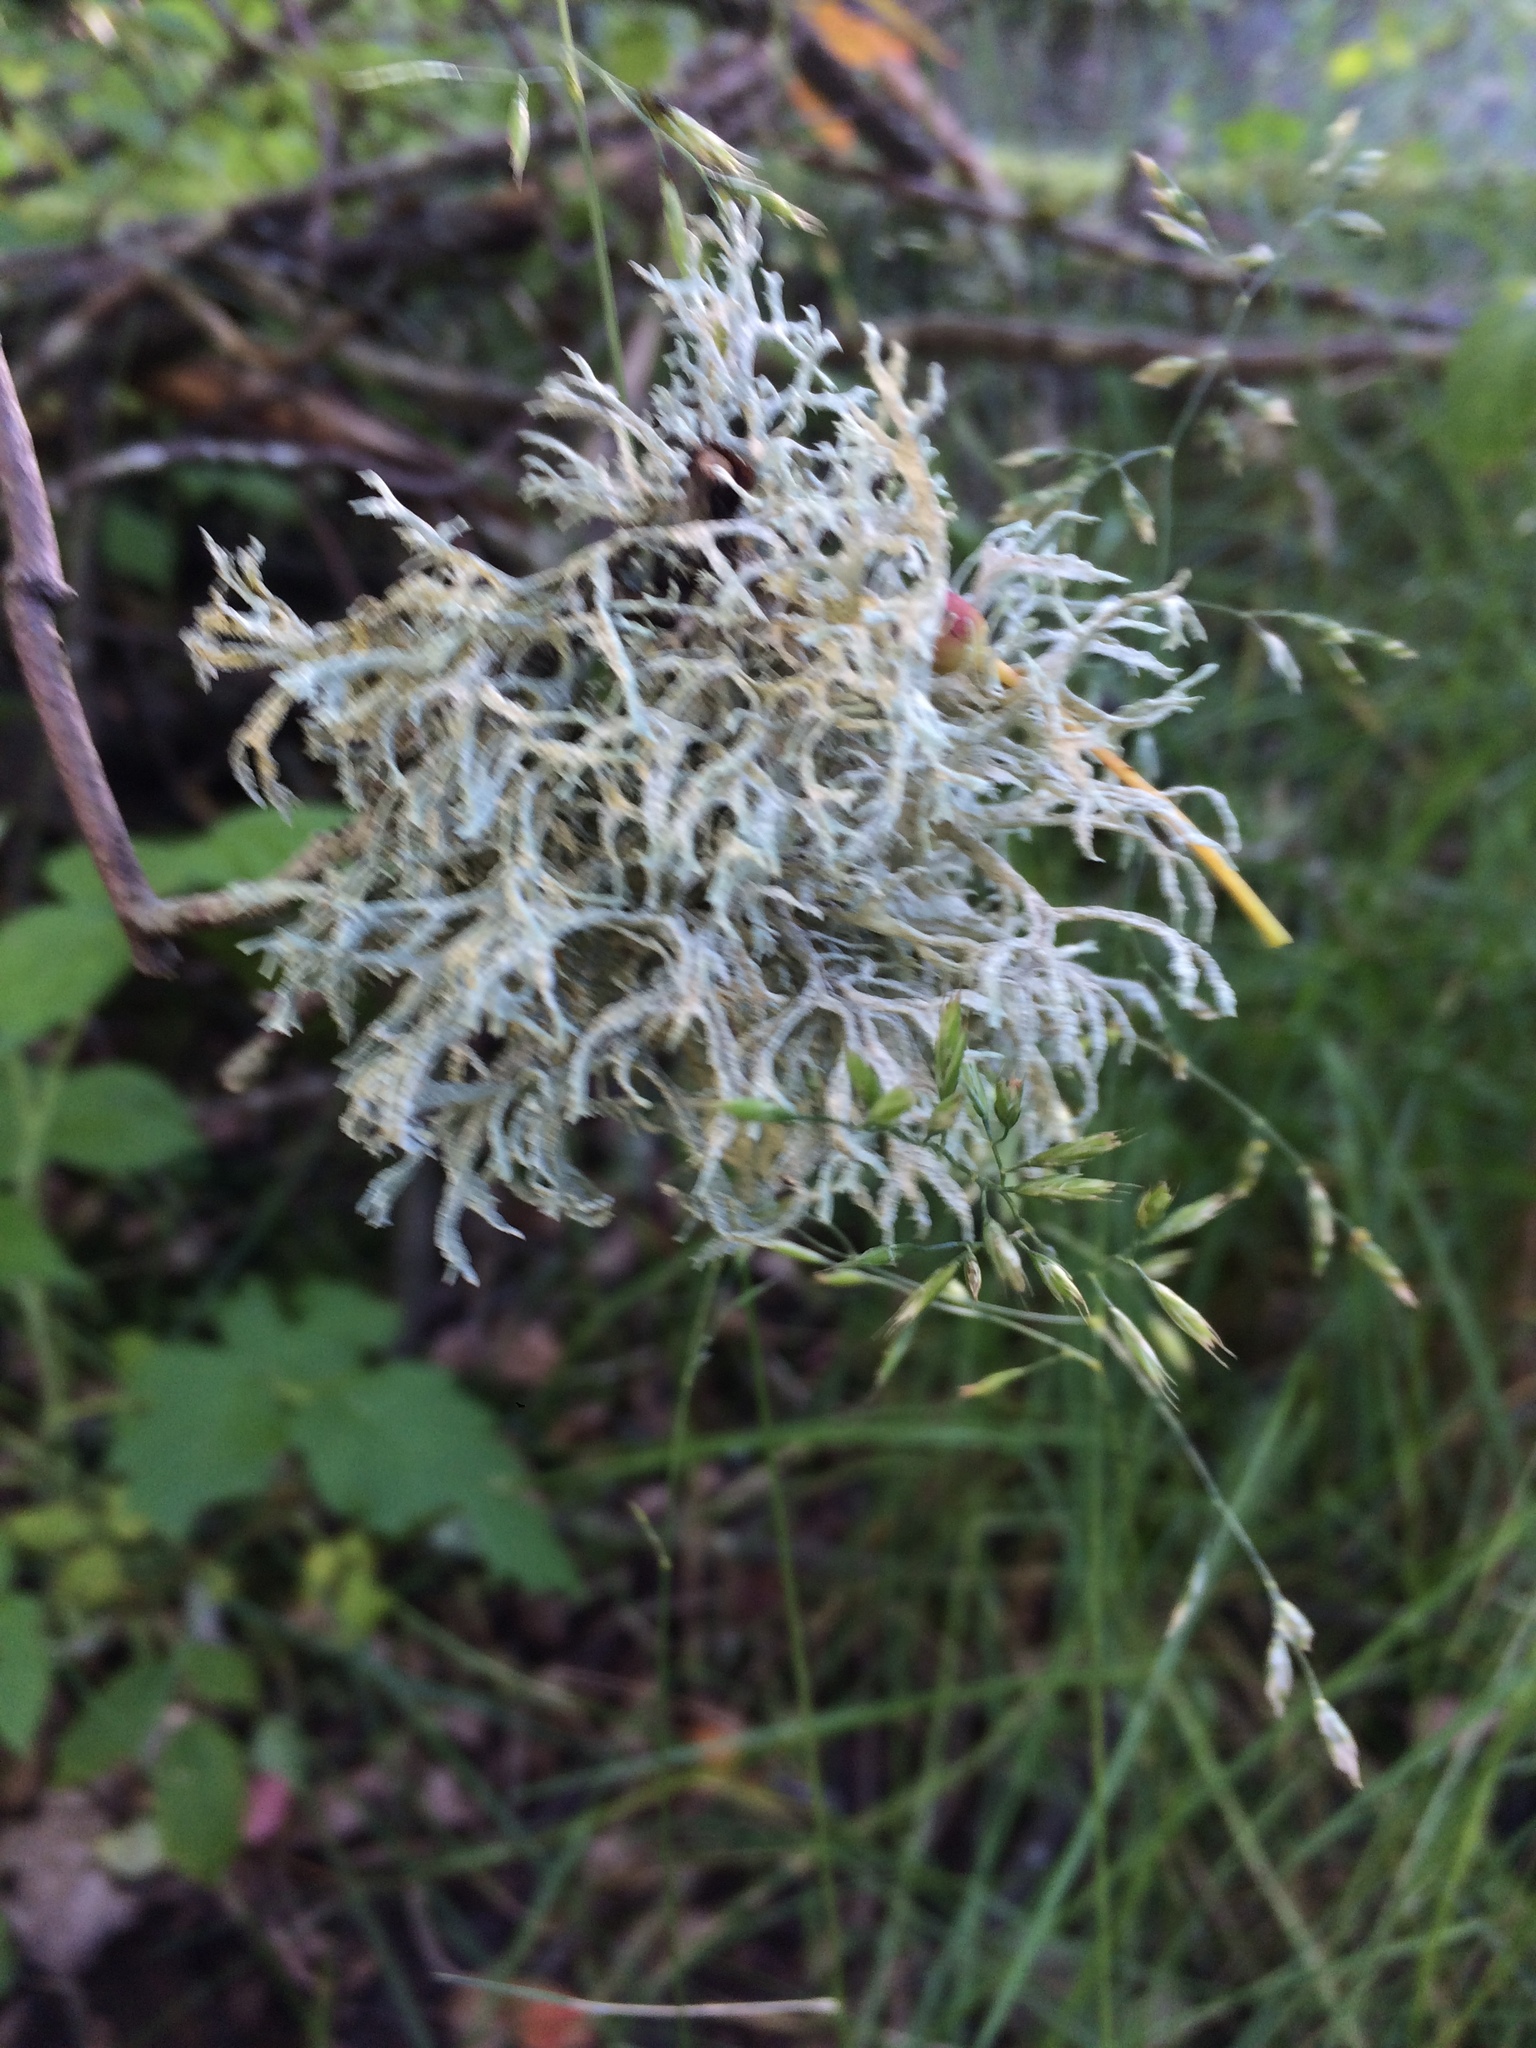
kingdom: Fungi
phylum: Ascomycota
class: Lecanoromycetes
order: Lecanorales
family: Parmeliaceae
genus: Pseudevernia
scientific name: Pseudevernia furfuracea
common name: Tree moss
